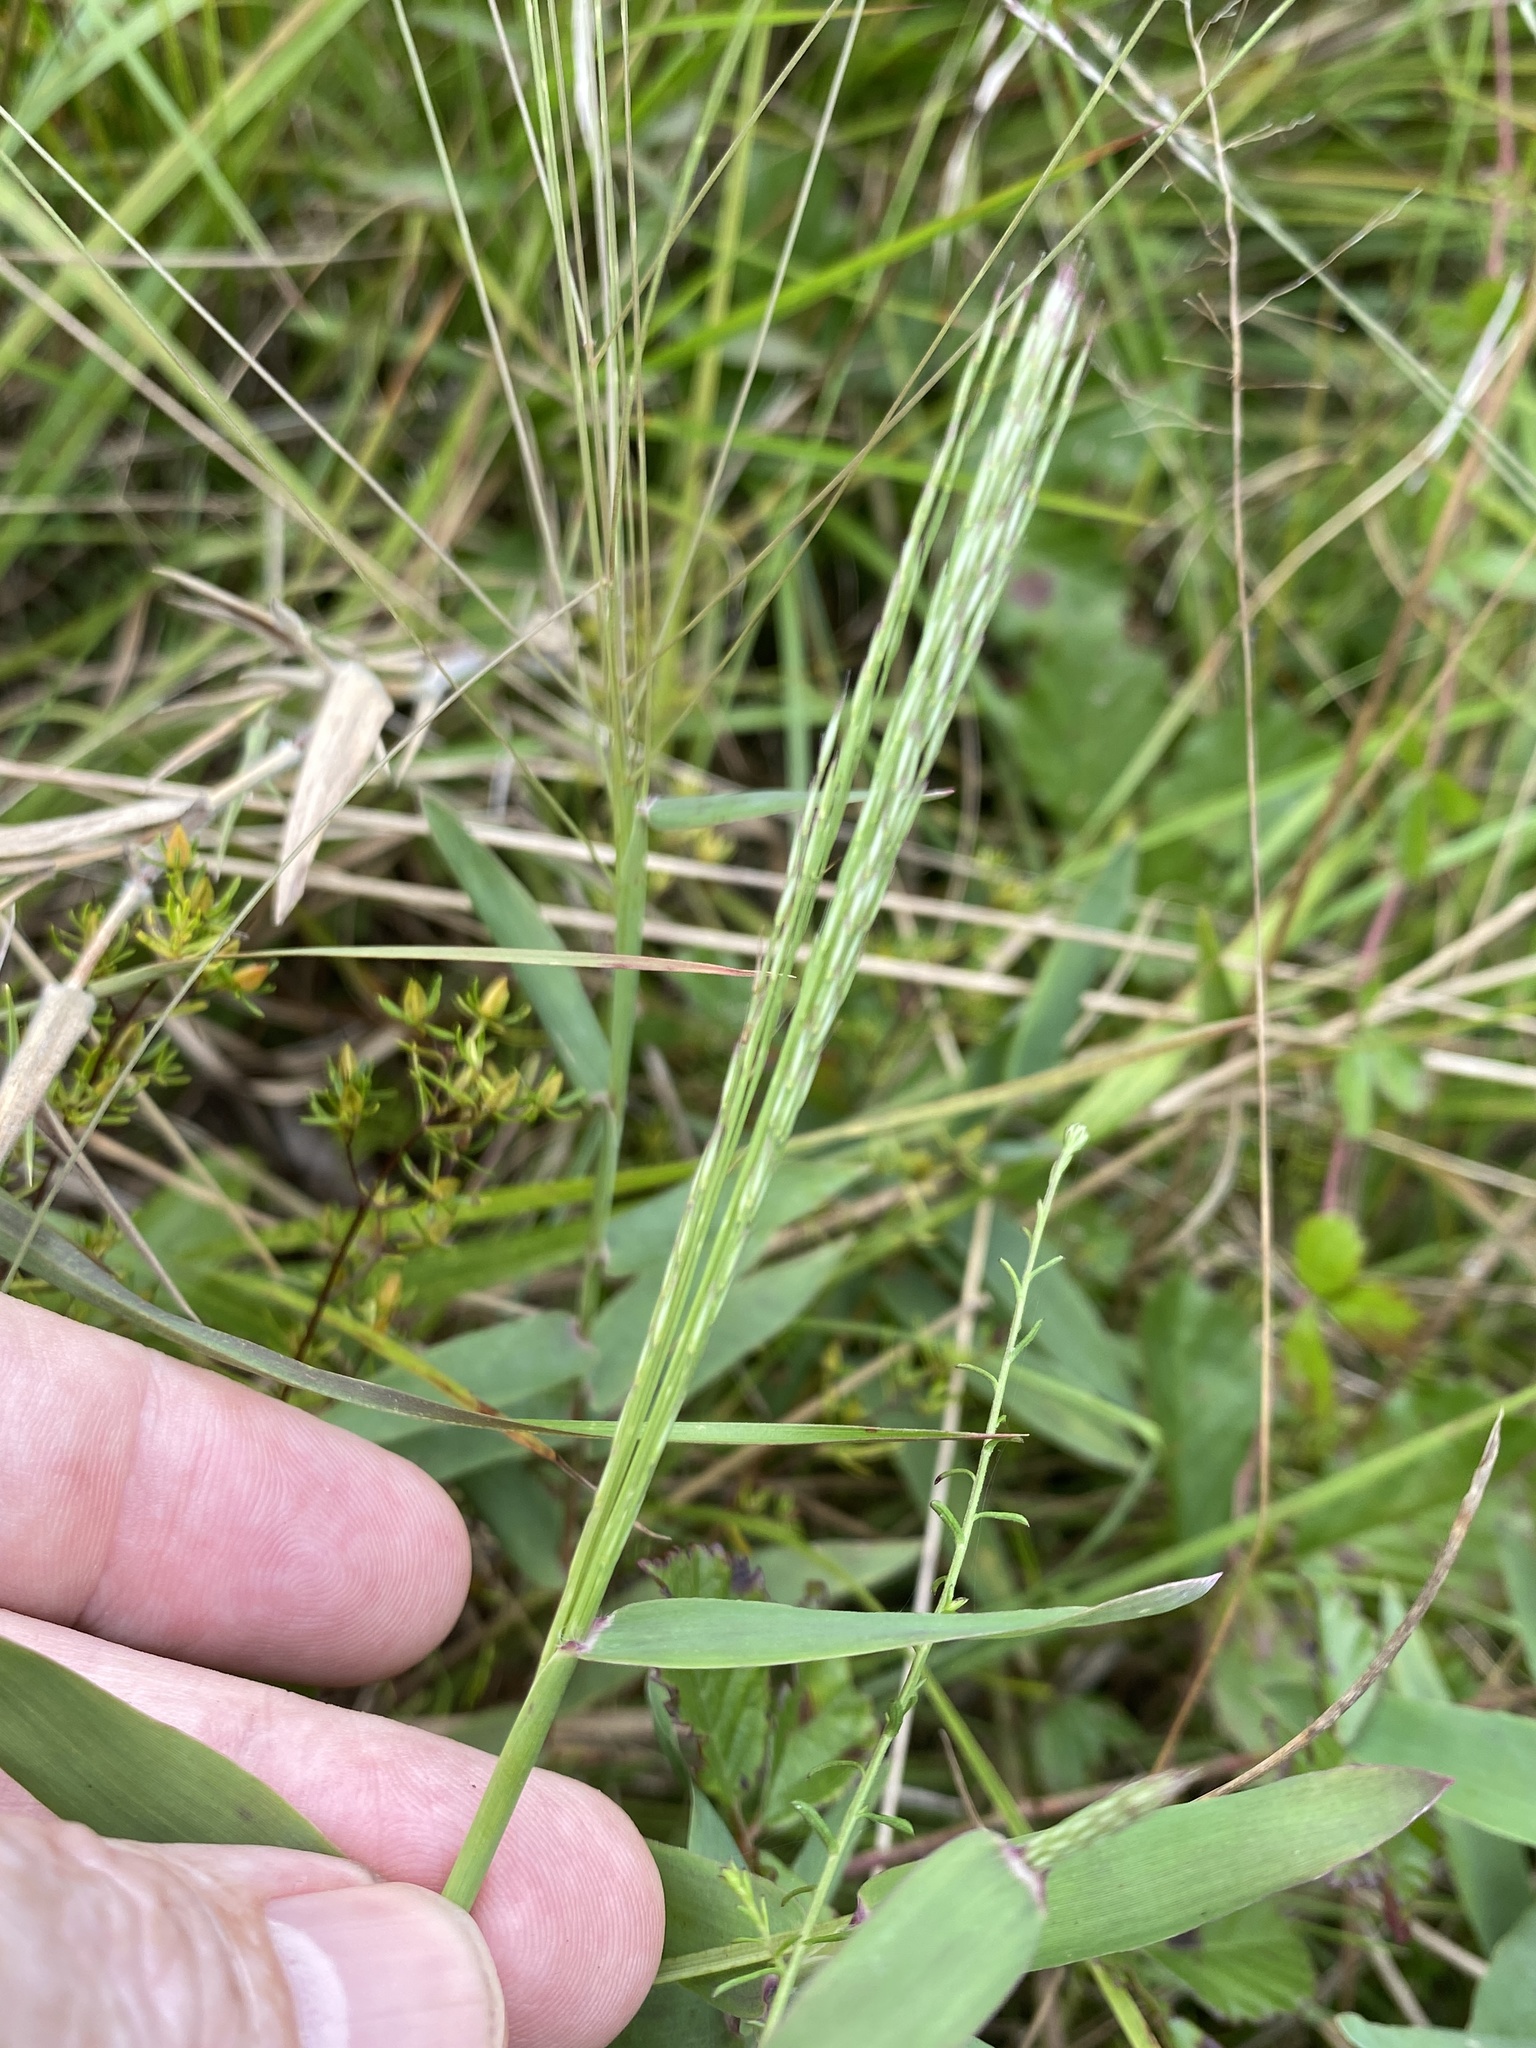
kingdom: Plantae
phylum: Tracheophyta
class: Liliopsida
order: Poales
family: Poaceae
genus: Gymnopogon
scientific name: Gymnopogon brevifolius
